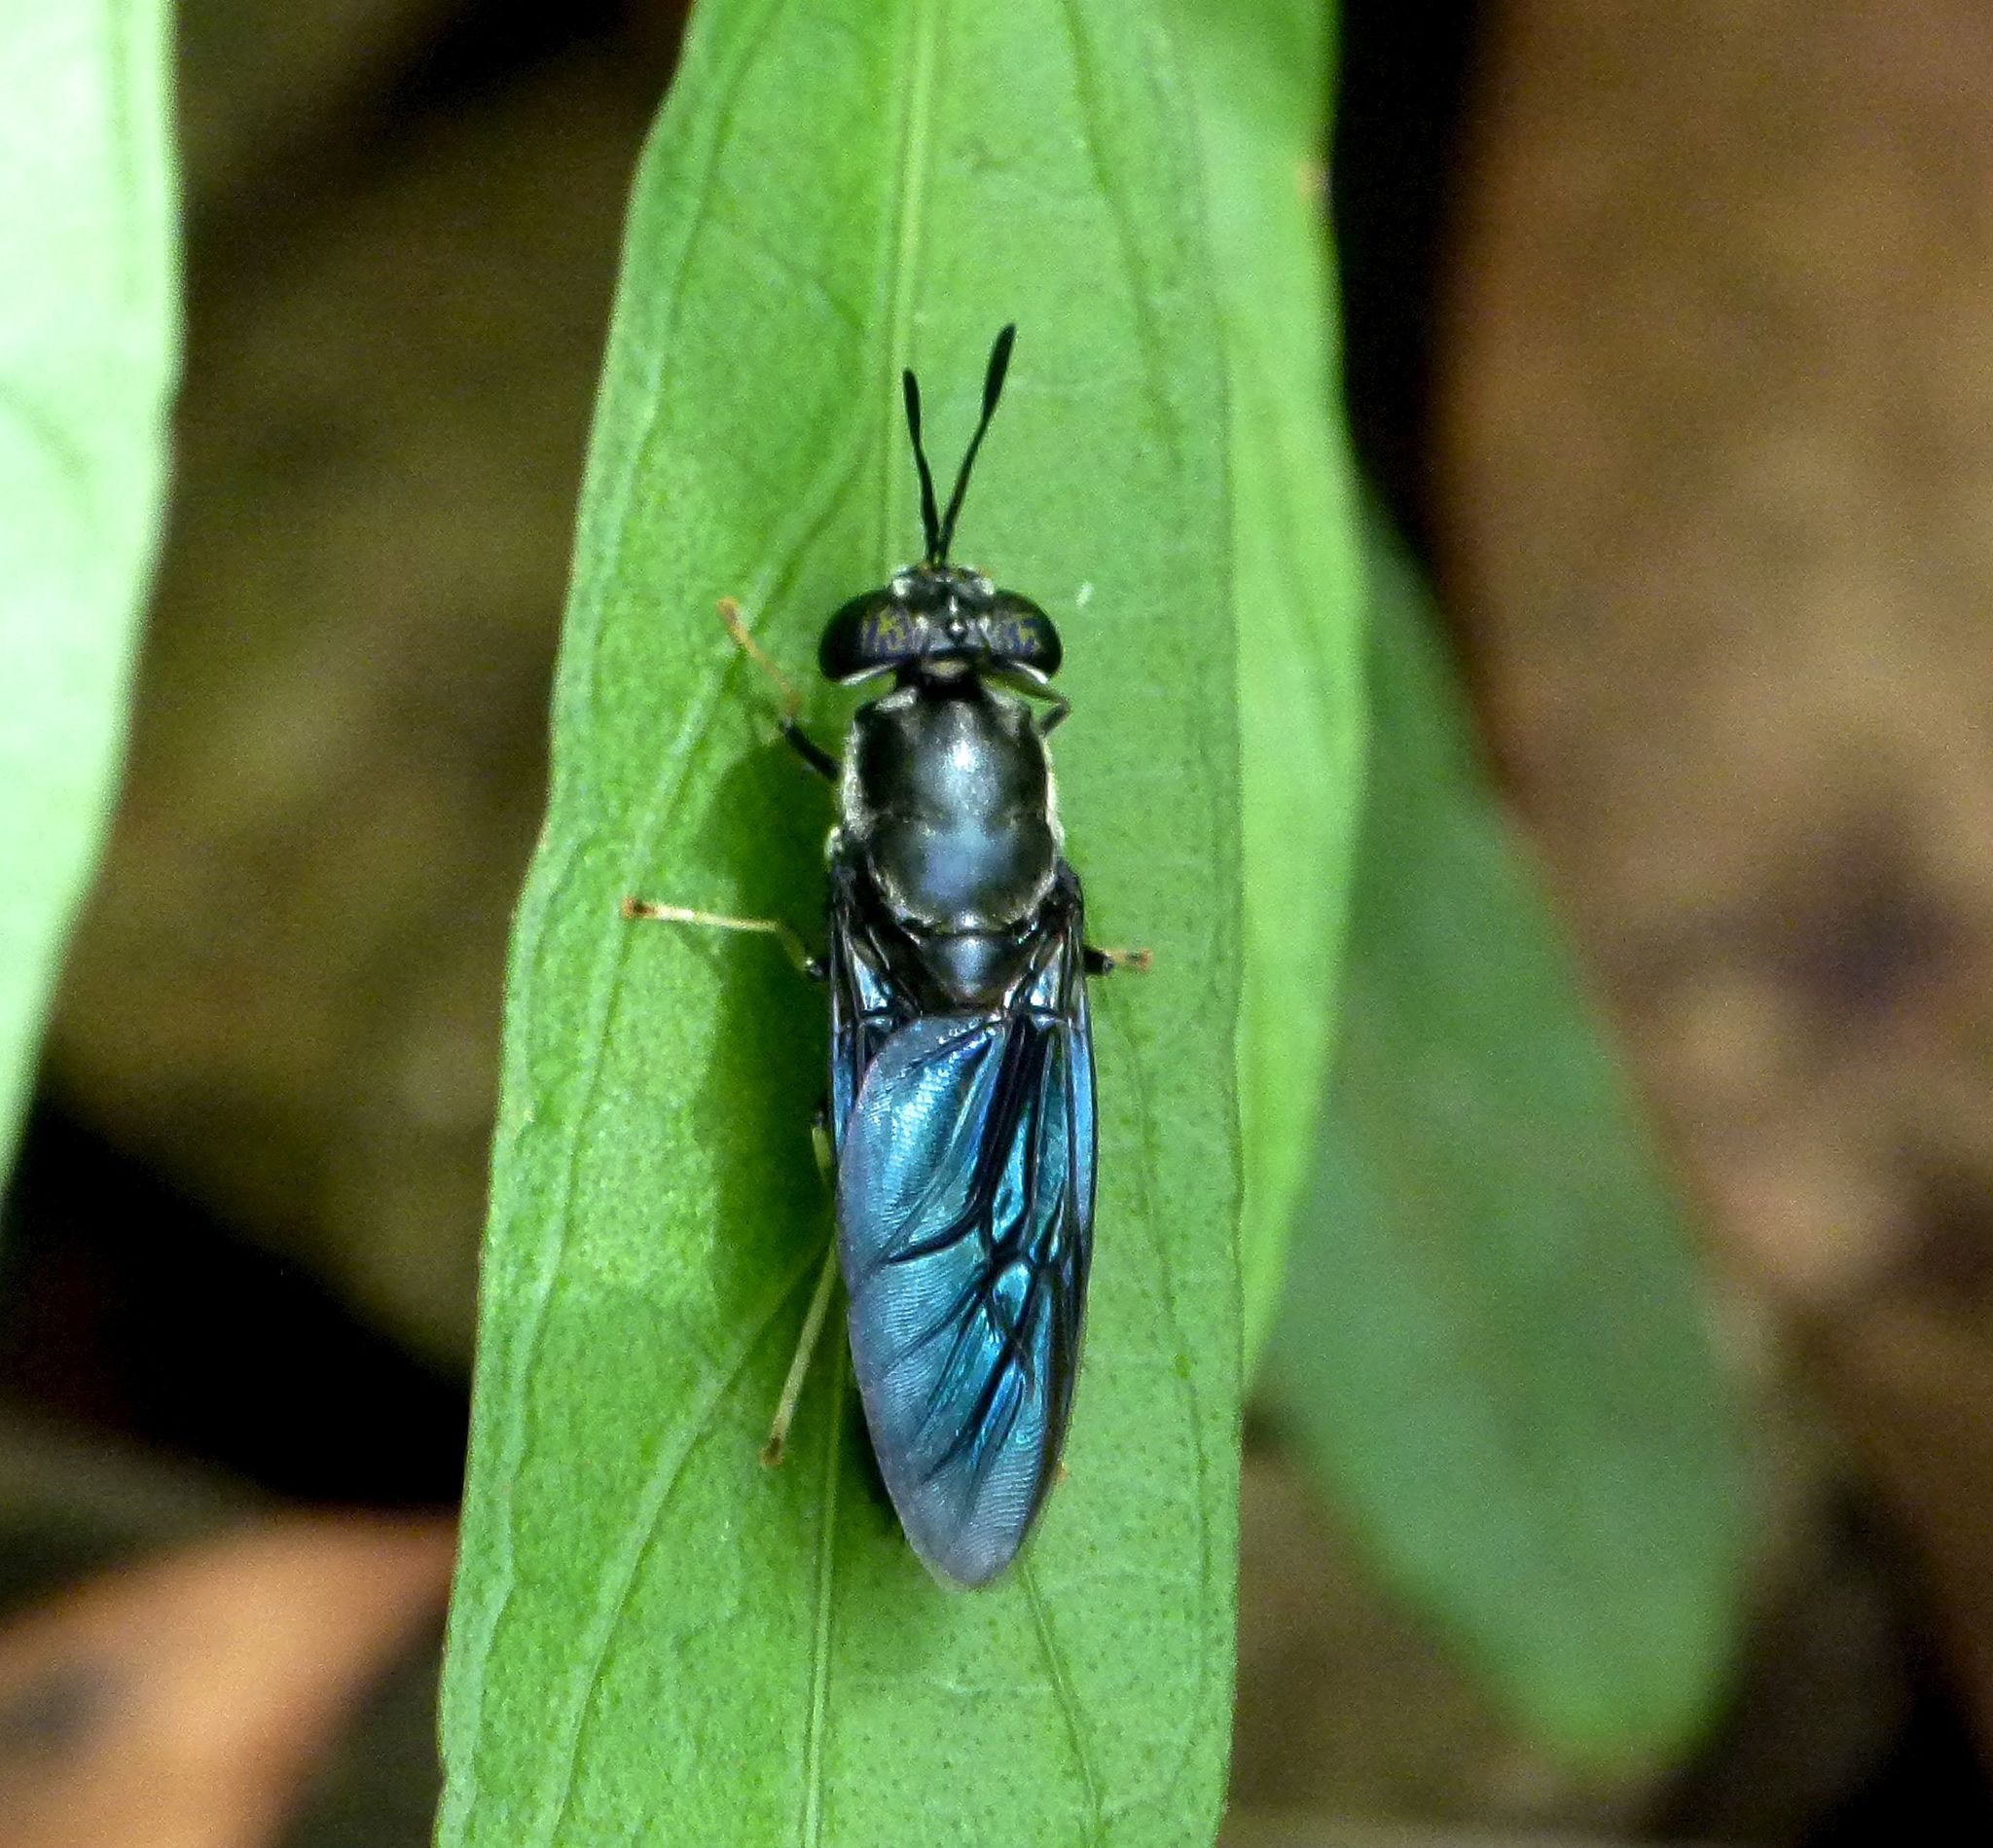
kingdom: Animalia
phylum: Arthropoda
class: Insecta
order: Diptera
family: Stratiomyidae
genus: Hermetia
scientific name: Hermetia illucens
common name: Black soldier fly
